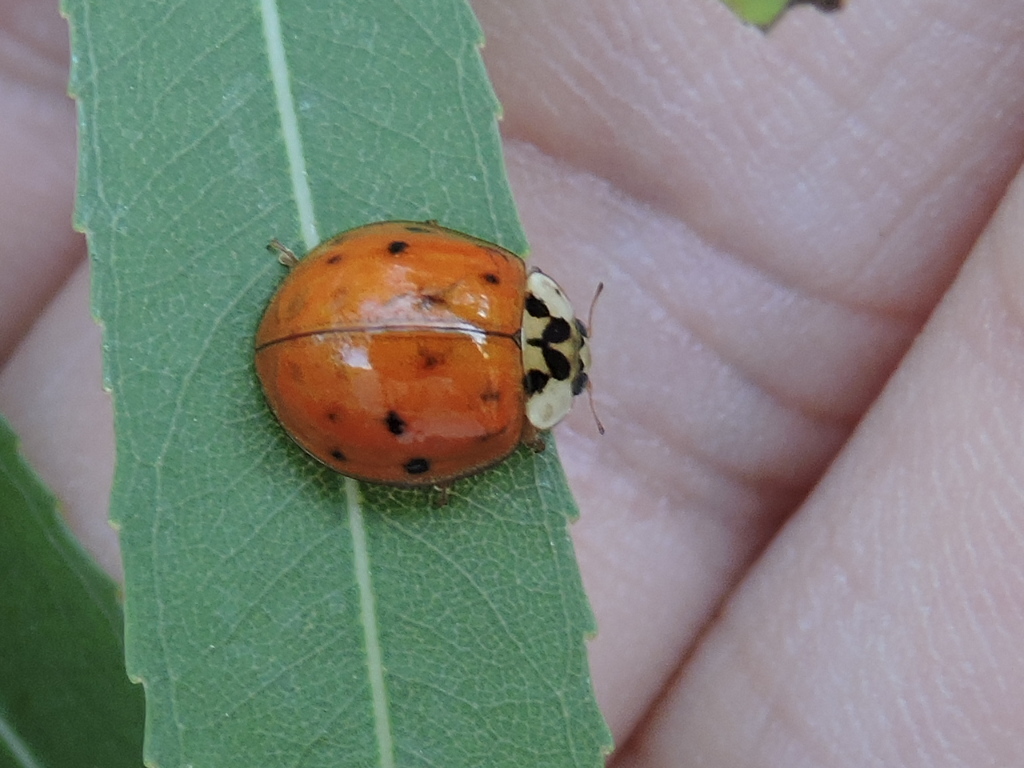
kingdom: Animalia
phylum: Arthropoda
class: Insecta
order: Coleoptera
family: Coccinellidae
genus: Harmonia
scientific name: Harmonia axyridis
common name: Harlequin ladybird
